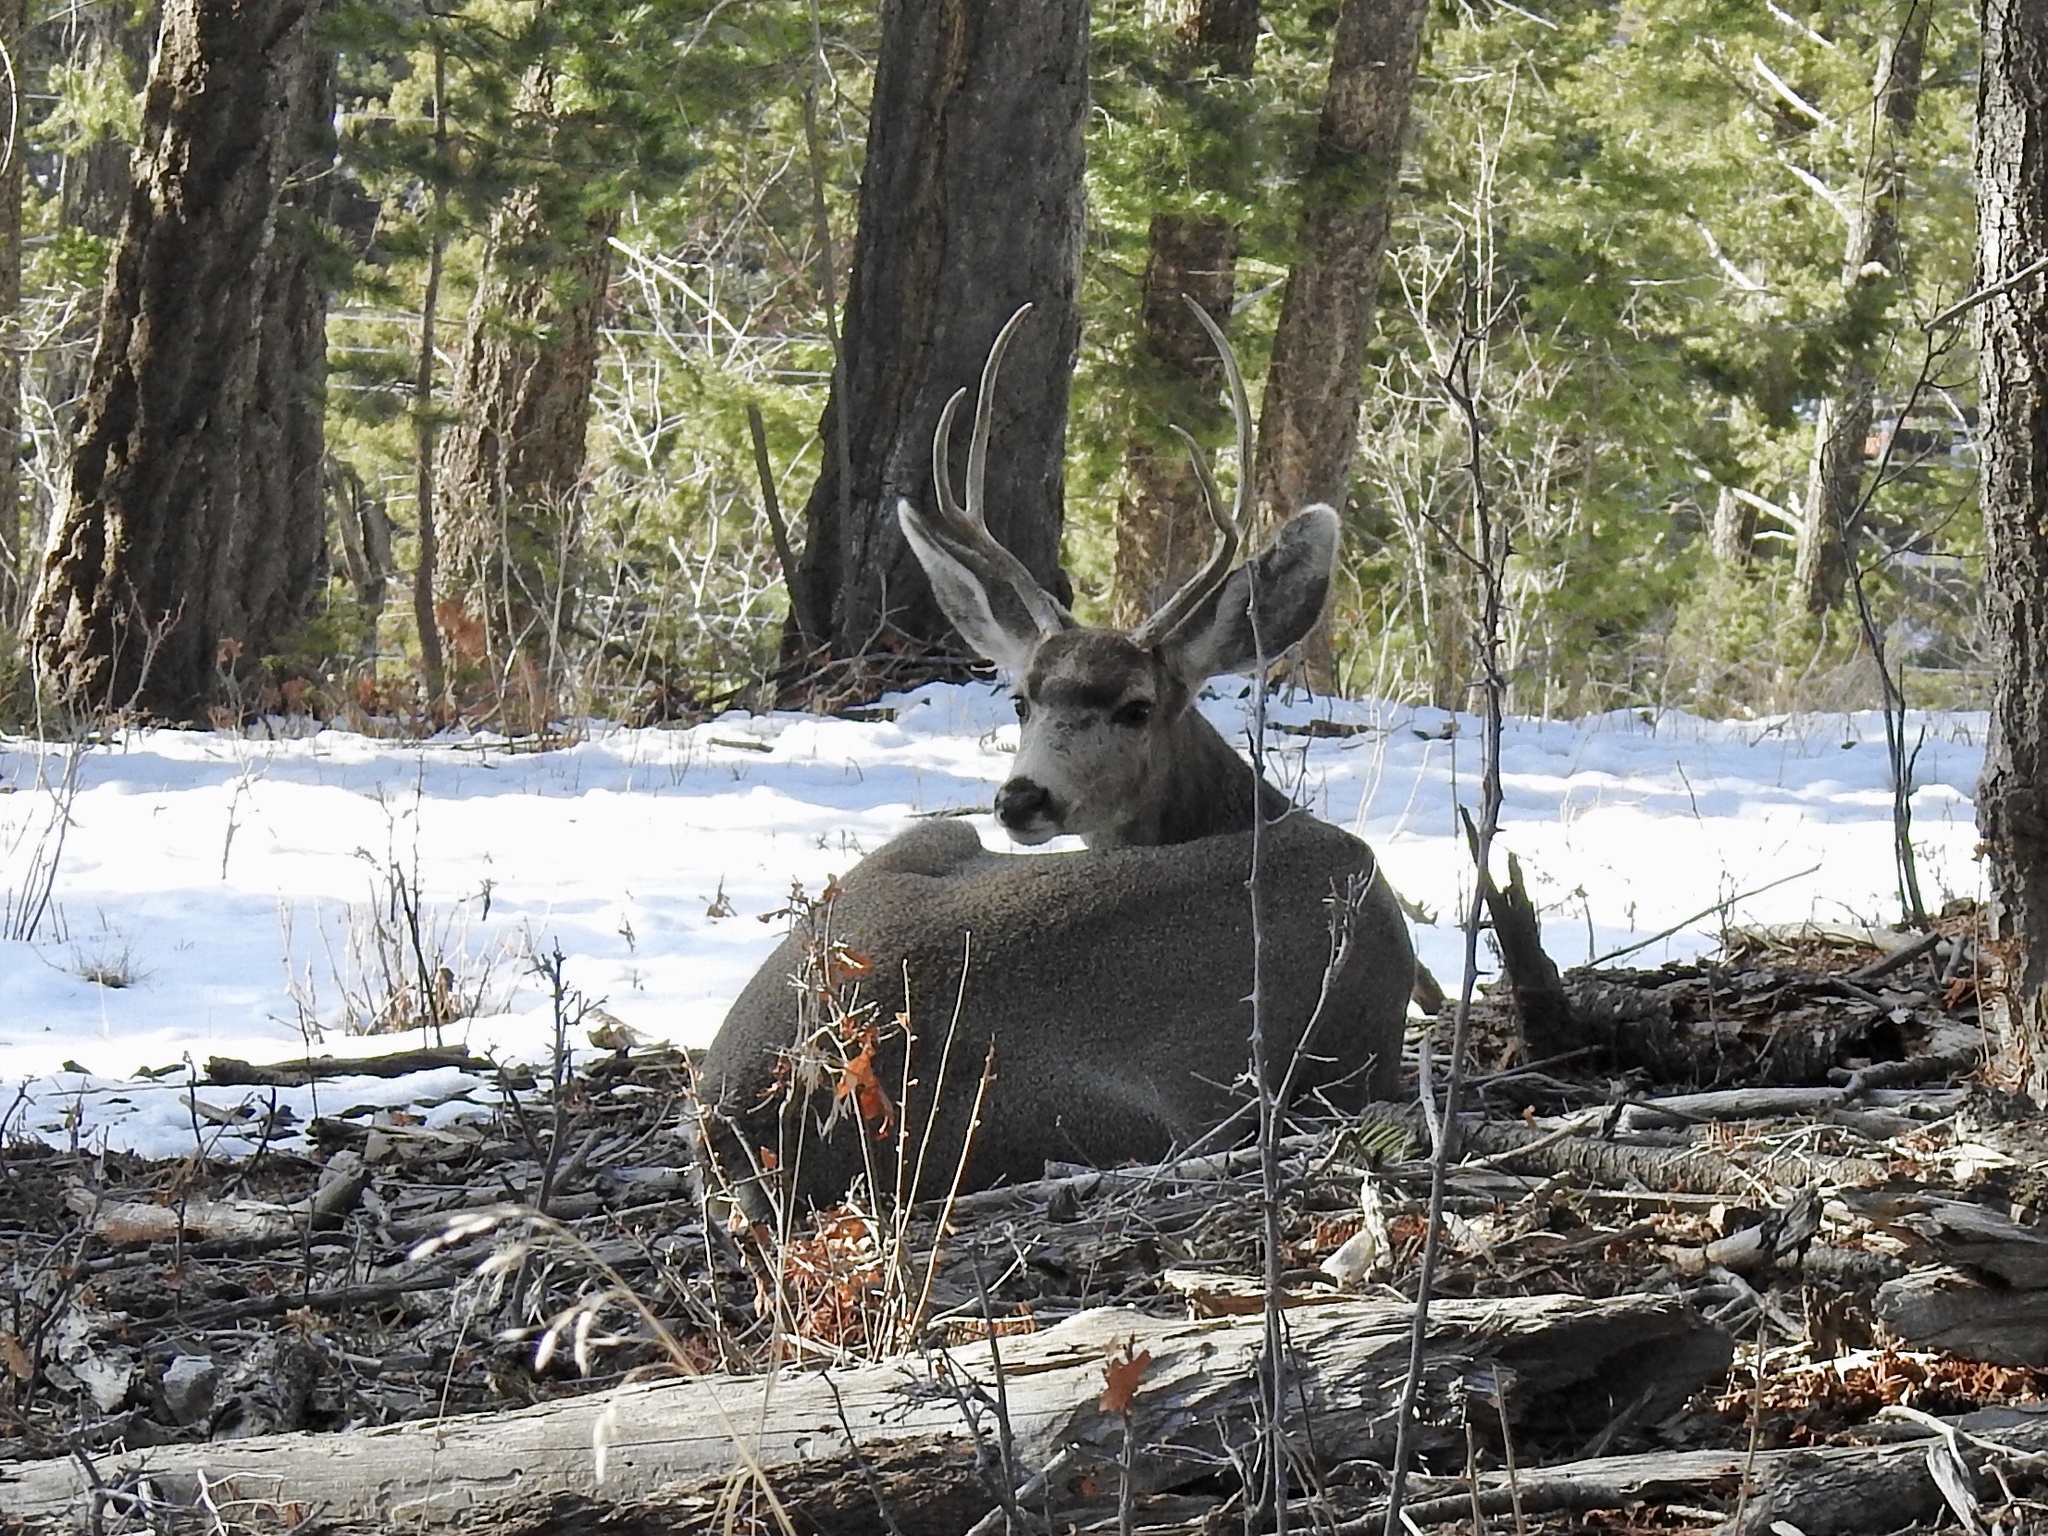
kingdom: Animalia
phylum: Chordata
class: Mammalia
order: Artiodactyla
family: Cervidae
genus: Odocoileus
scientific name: Odocoileus hemionus
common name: Mule deer
